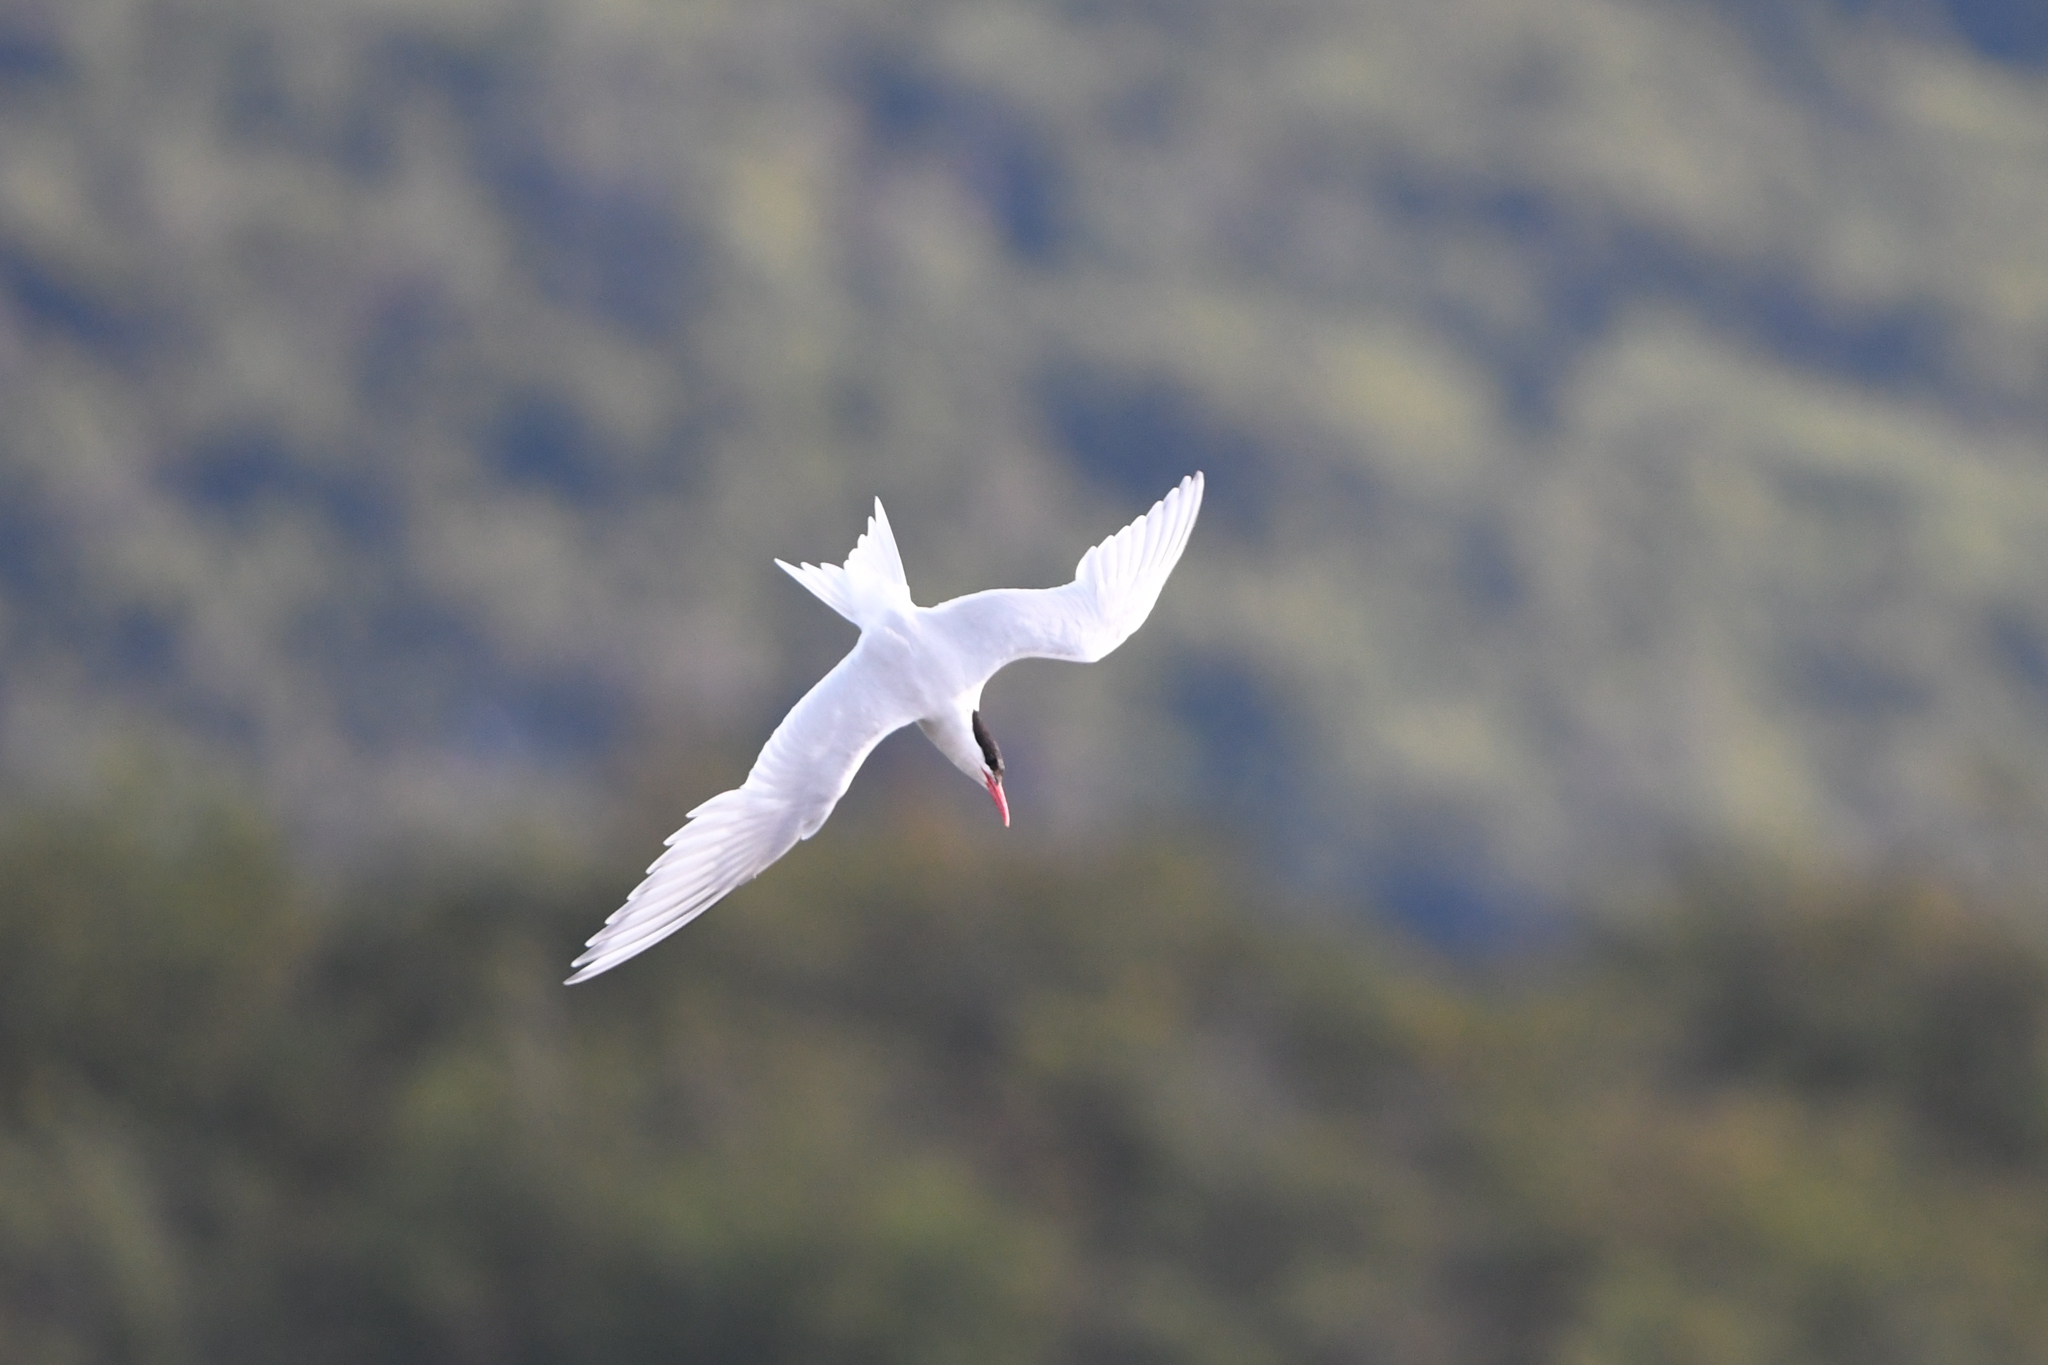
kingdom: Animalia
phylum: Chordata
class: Aves
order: Charadriiformes
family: Laridae
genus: Sterna
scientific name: Sterna hirundinacea
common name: South american tern
